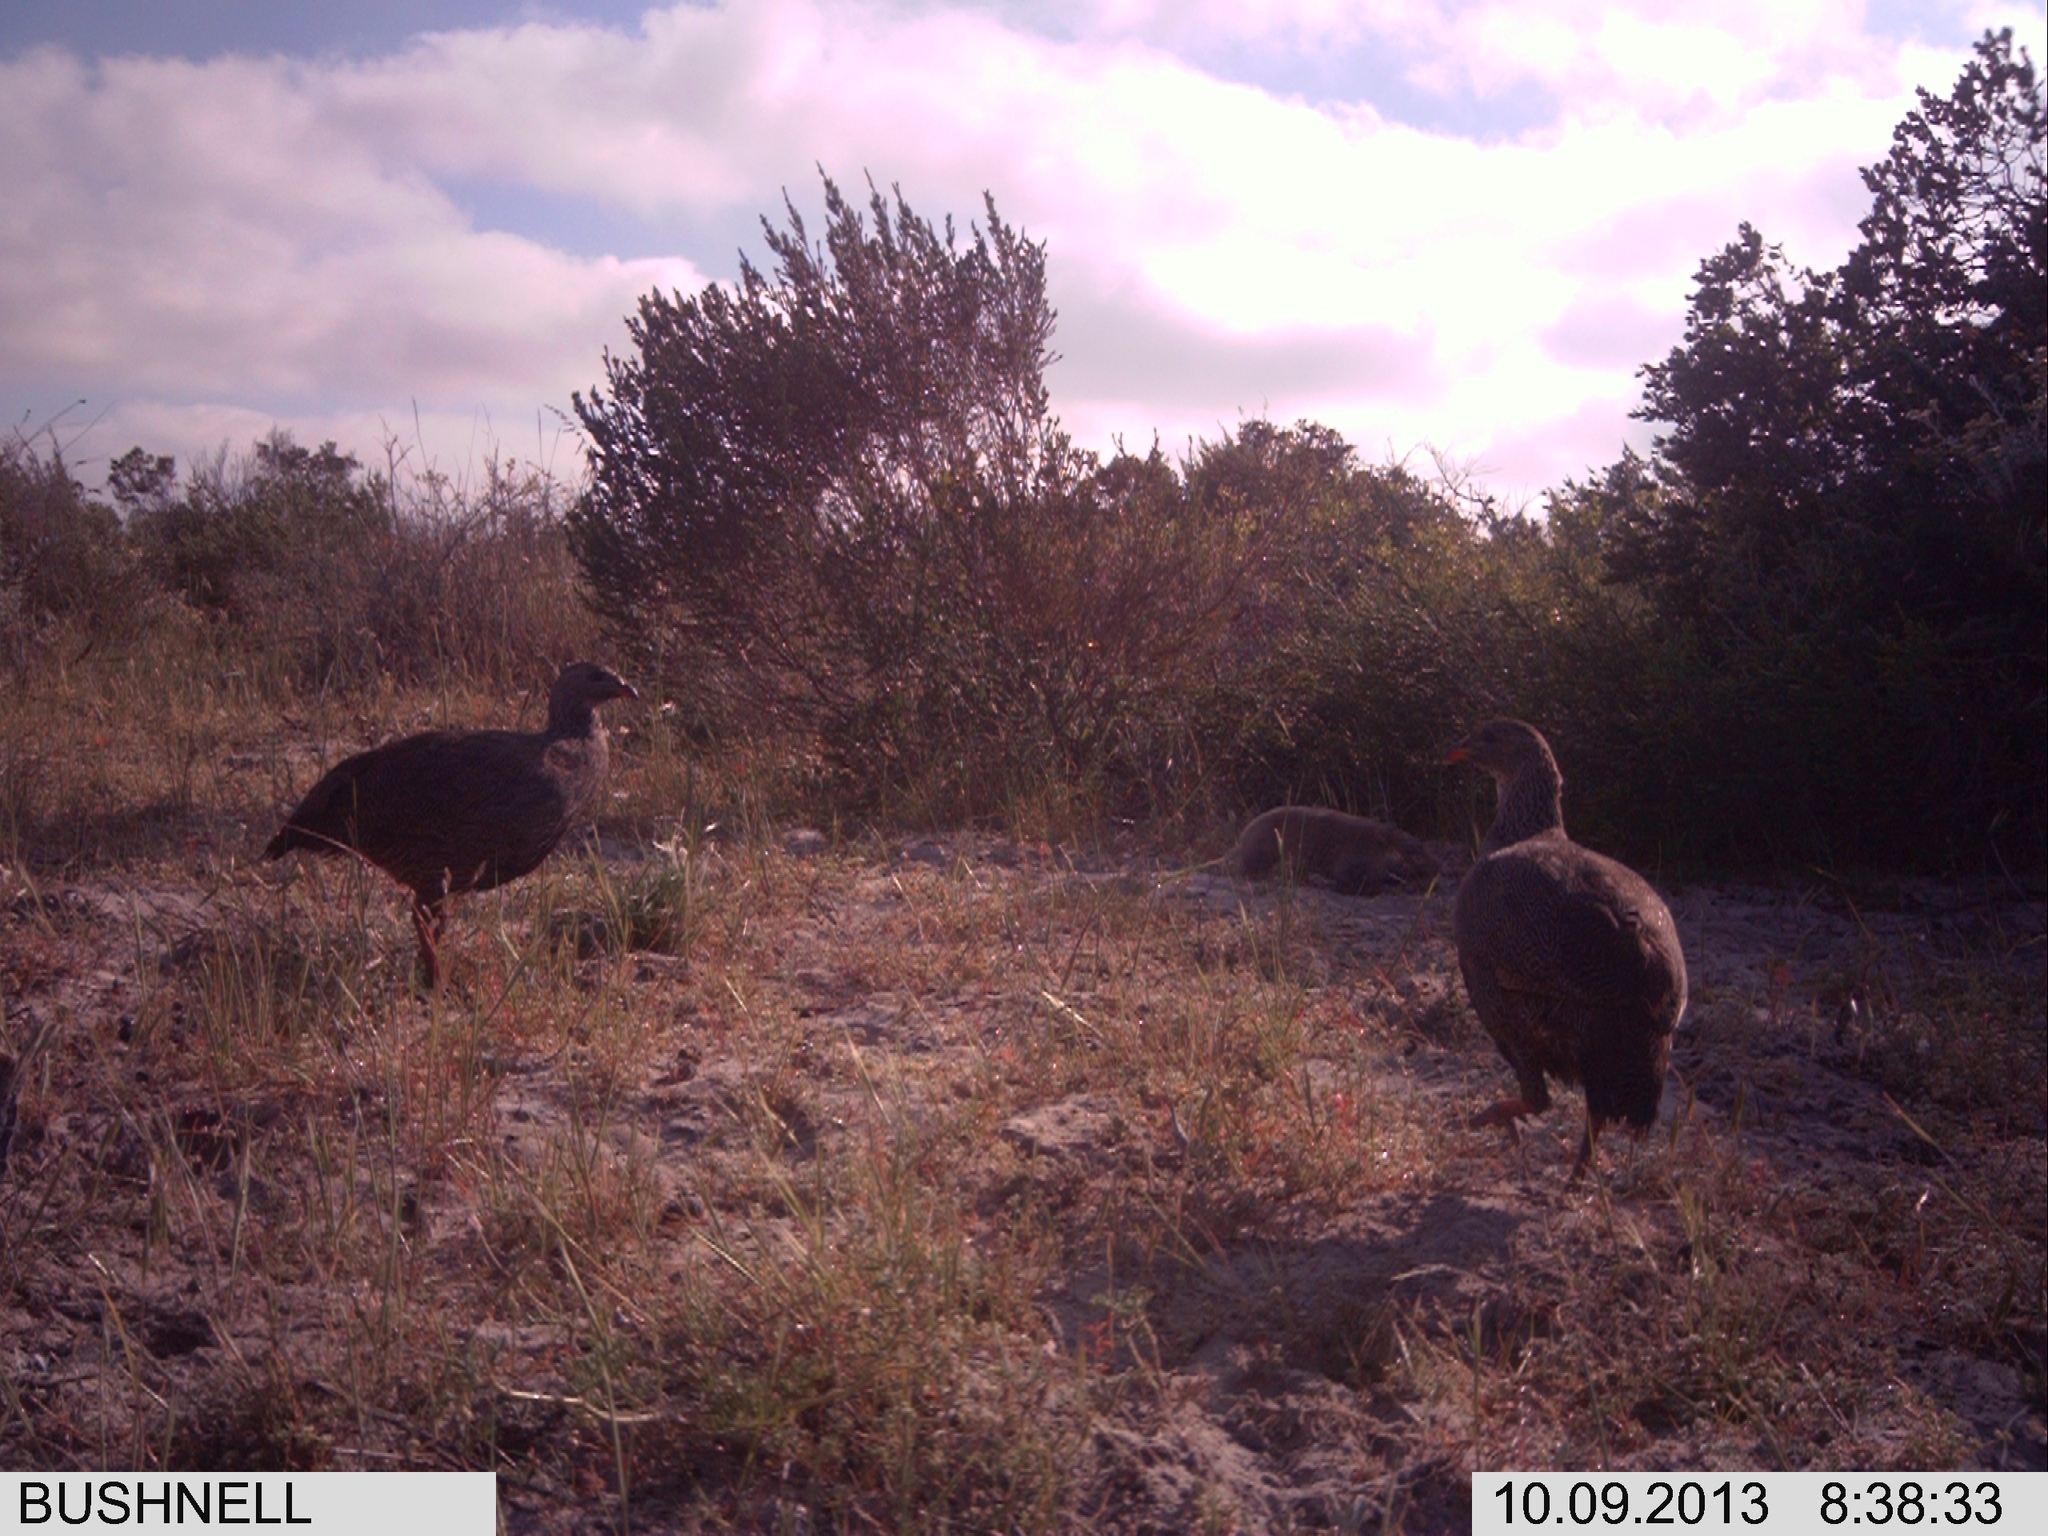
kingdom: Animalia
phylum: Chordata
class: Mammalia
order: Rodentia
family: Bathyergidae
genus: Bathyergus
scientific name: Bathyergus suillus
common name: Cape dune mole rat
